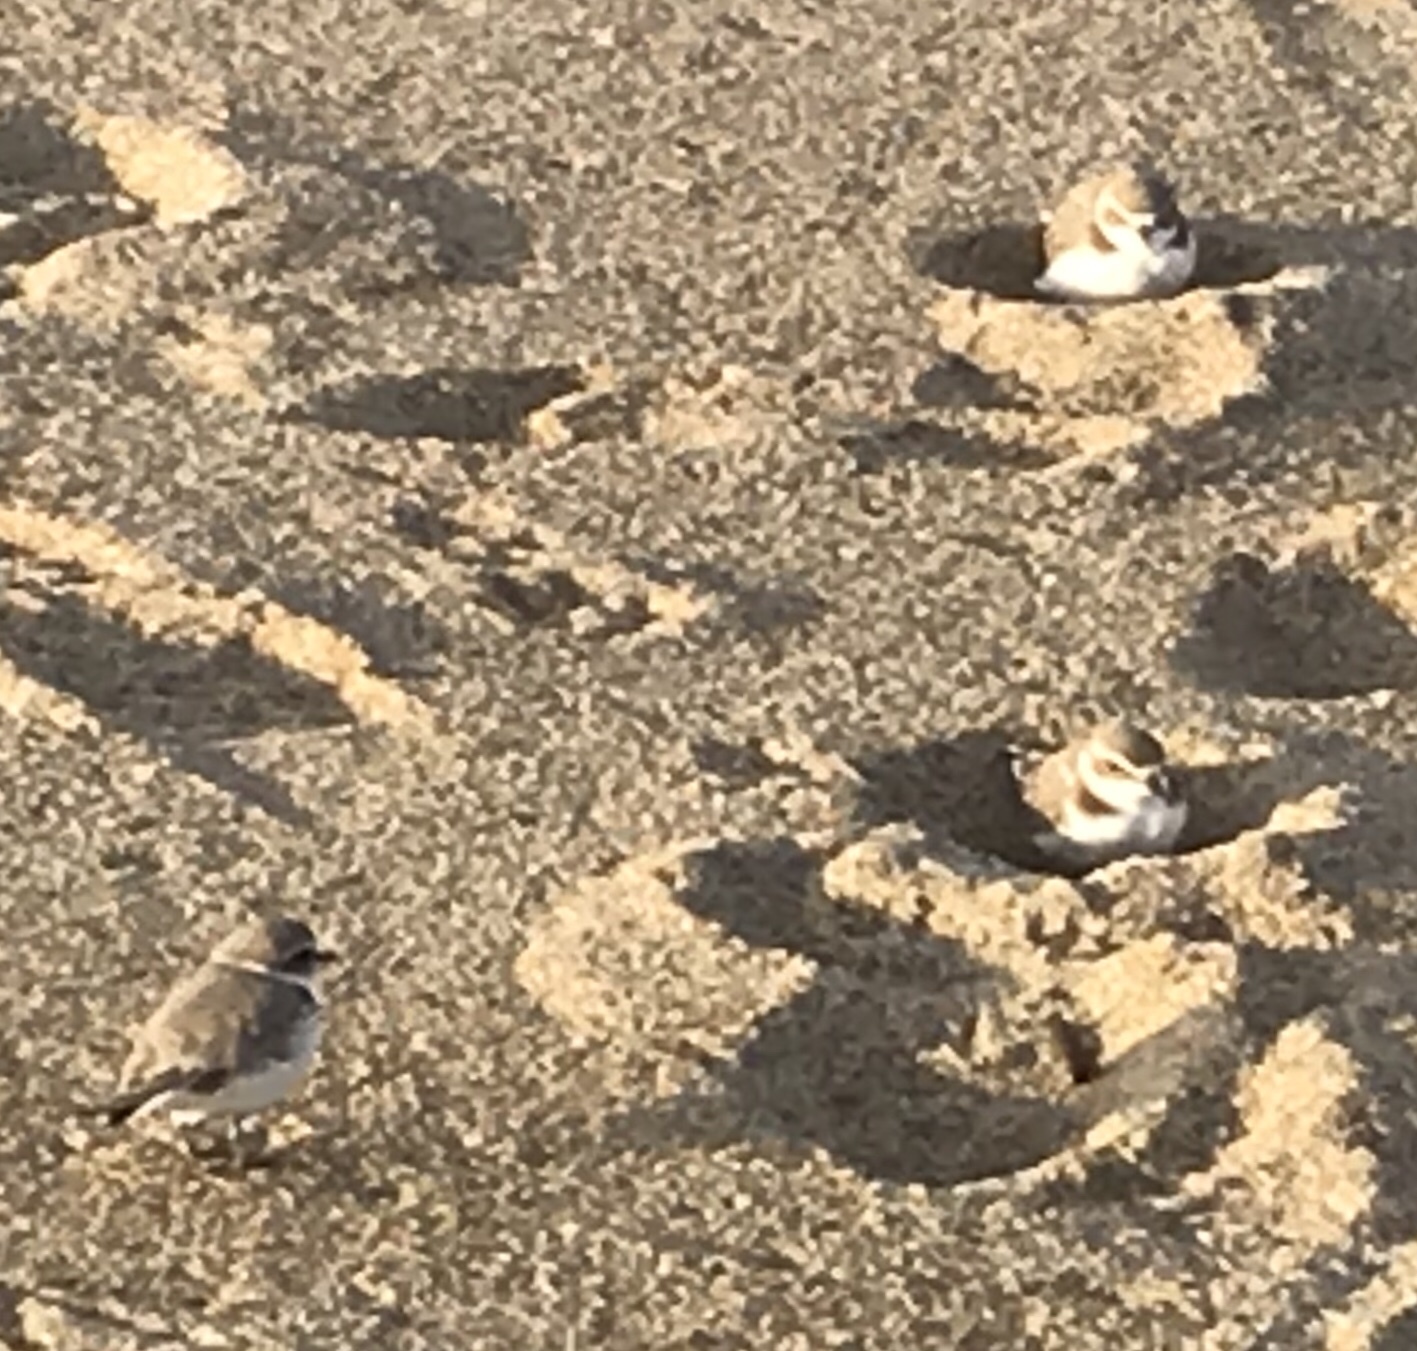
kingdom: Animalia
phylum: Chordata
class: Aves
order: Charadriiformes
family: Charadriidae
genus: Anarhynchus
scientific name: Anarhynchus
